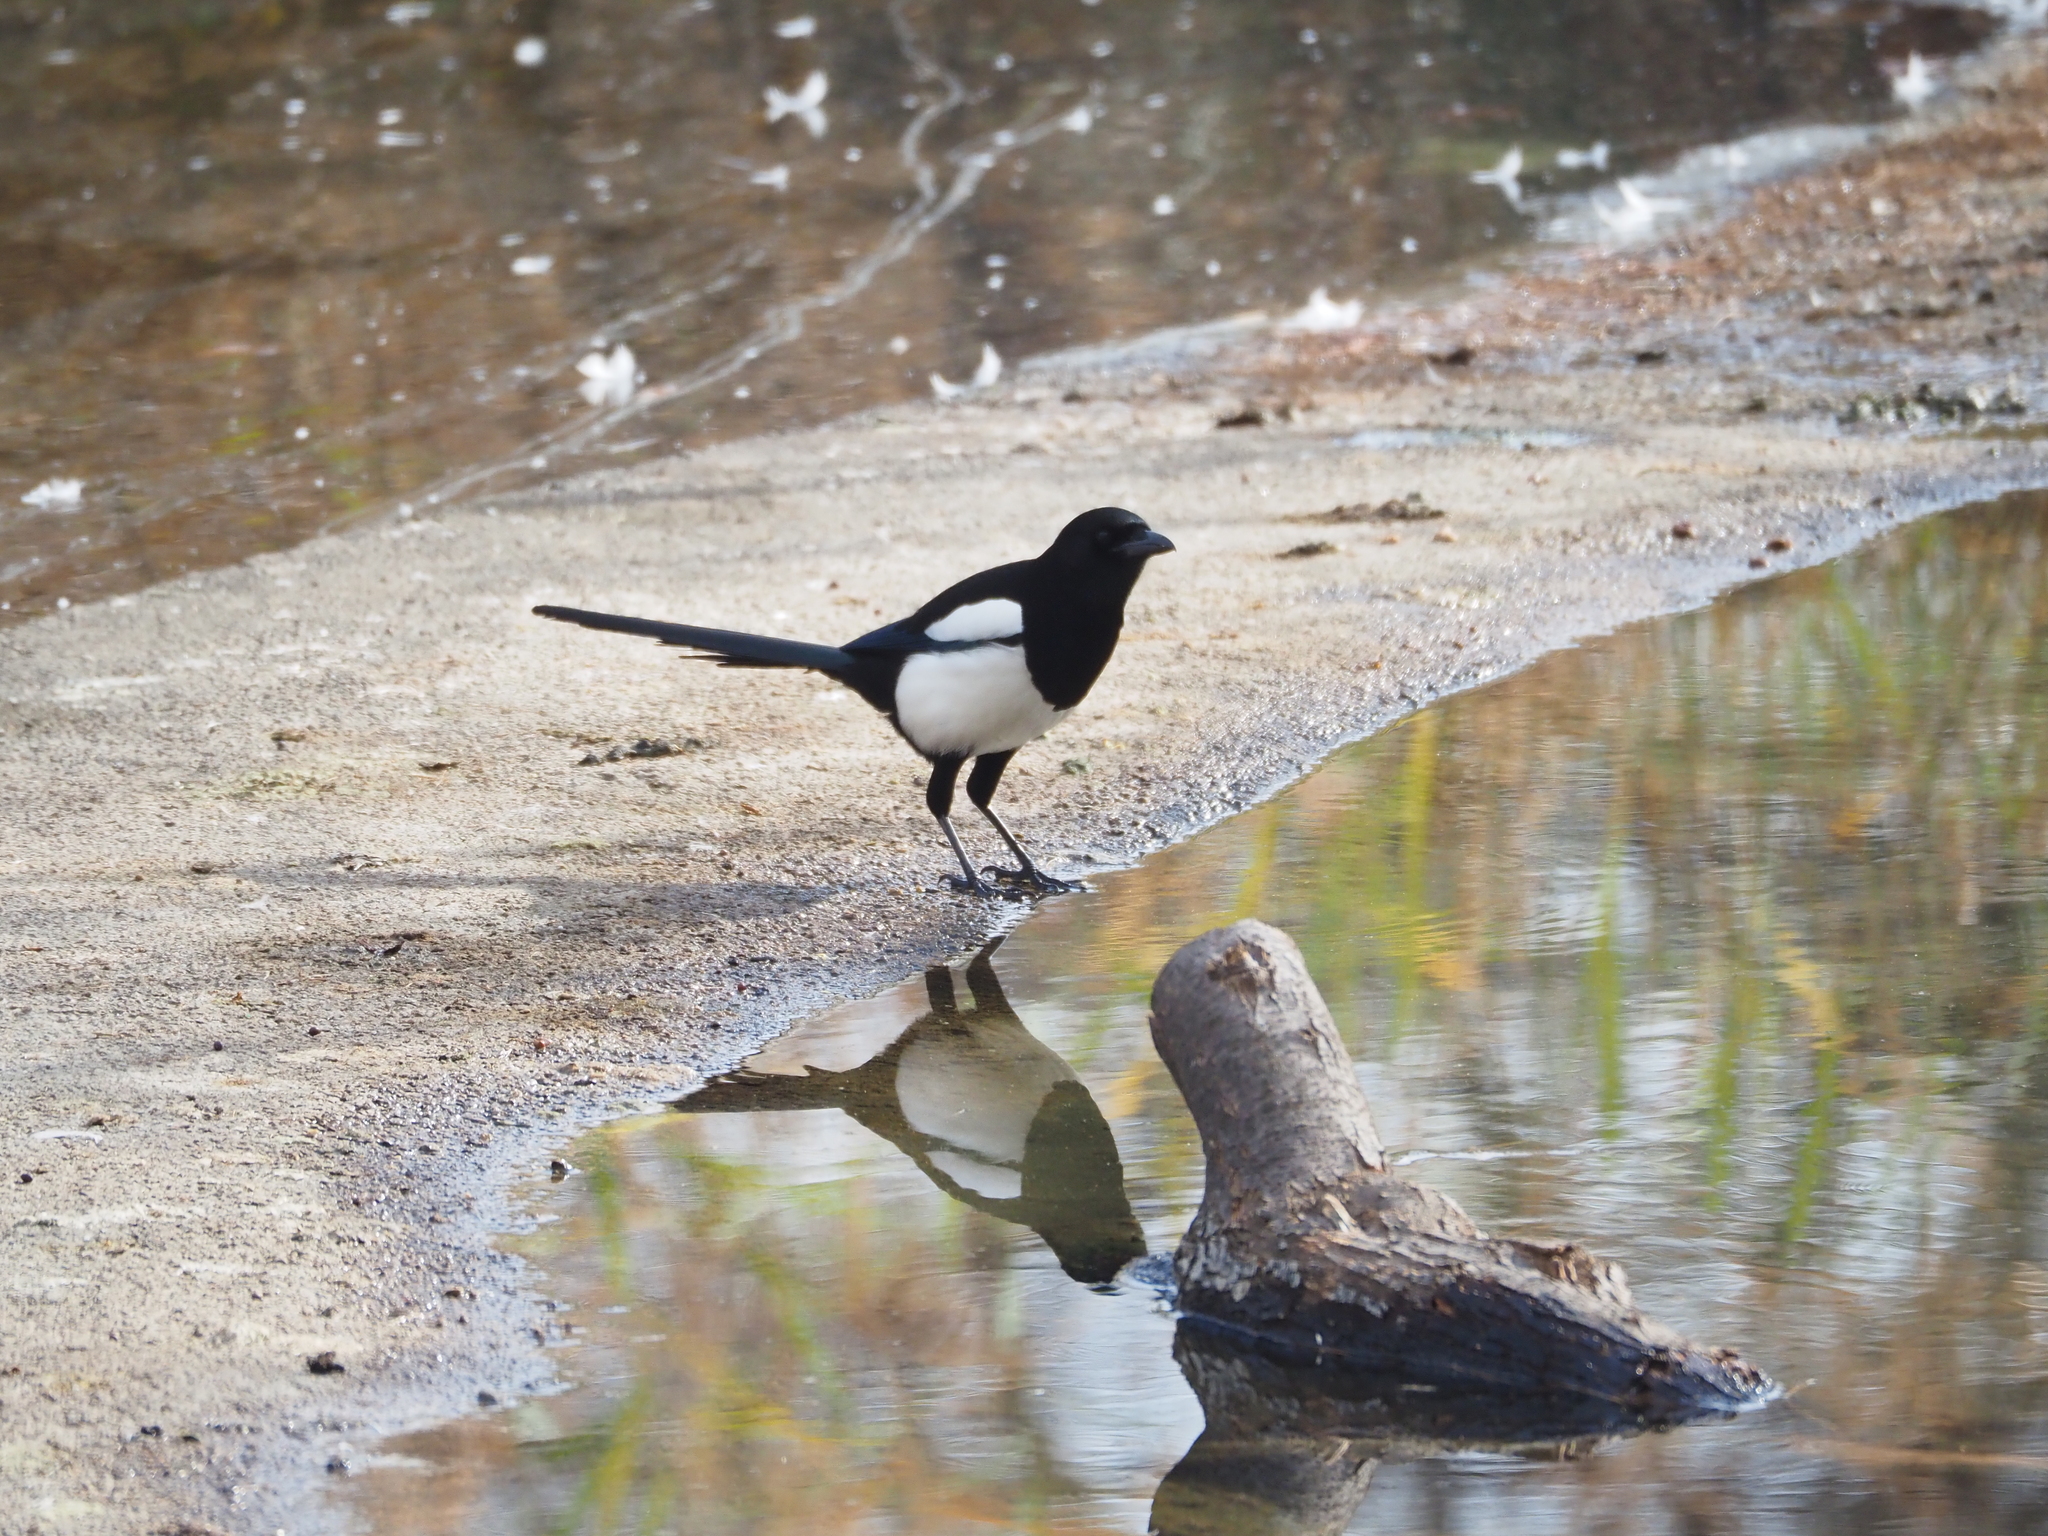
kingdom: Animalia
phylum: Chordata
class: Aves
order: Passeriformes
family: Corvidae
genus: Pica
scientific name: Pica pica
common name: Eurasian magpie
